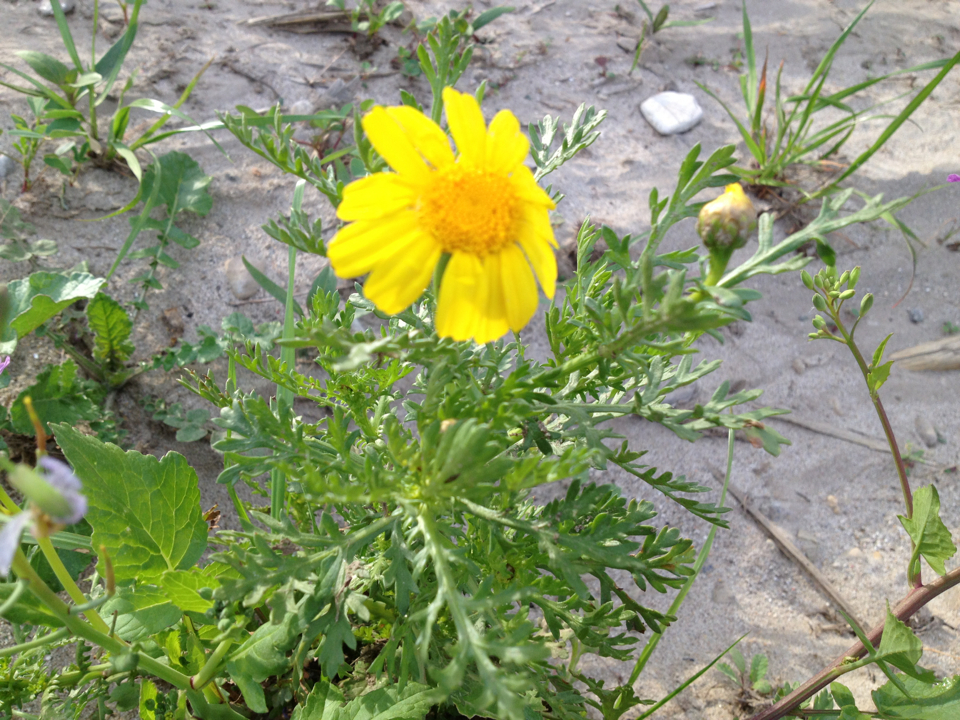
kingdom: Plantae
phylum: Tracheophyta
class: Magnoliopsida
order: Asterales
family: Asteraceae
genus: Glebionis
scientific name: Glebionis coronaria
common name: Crowndaisy
